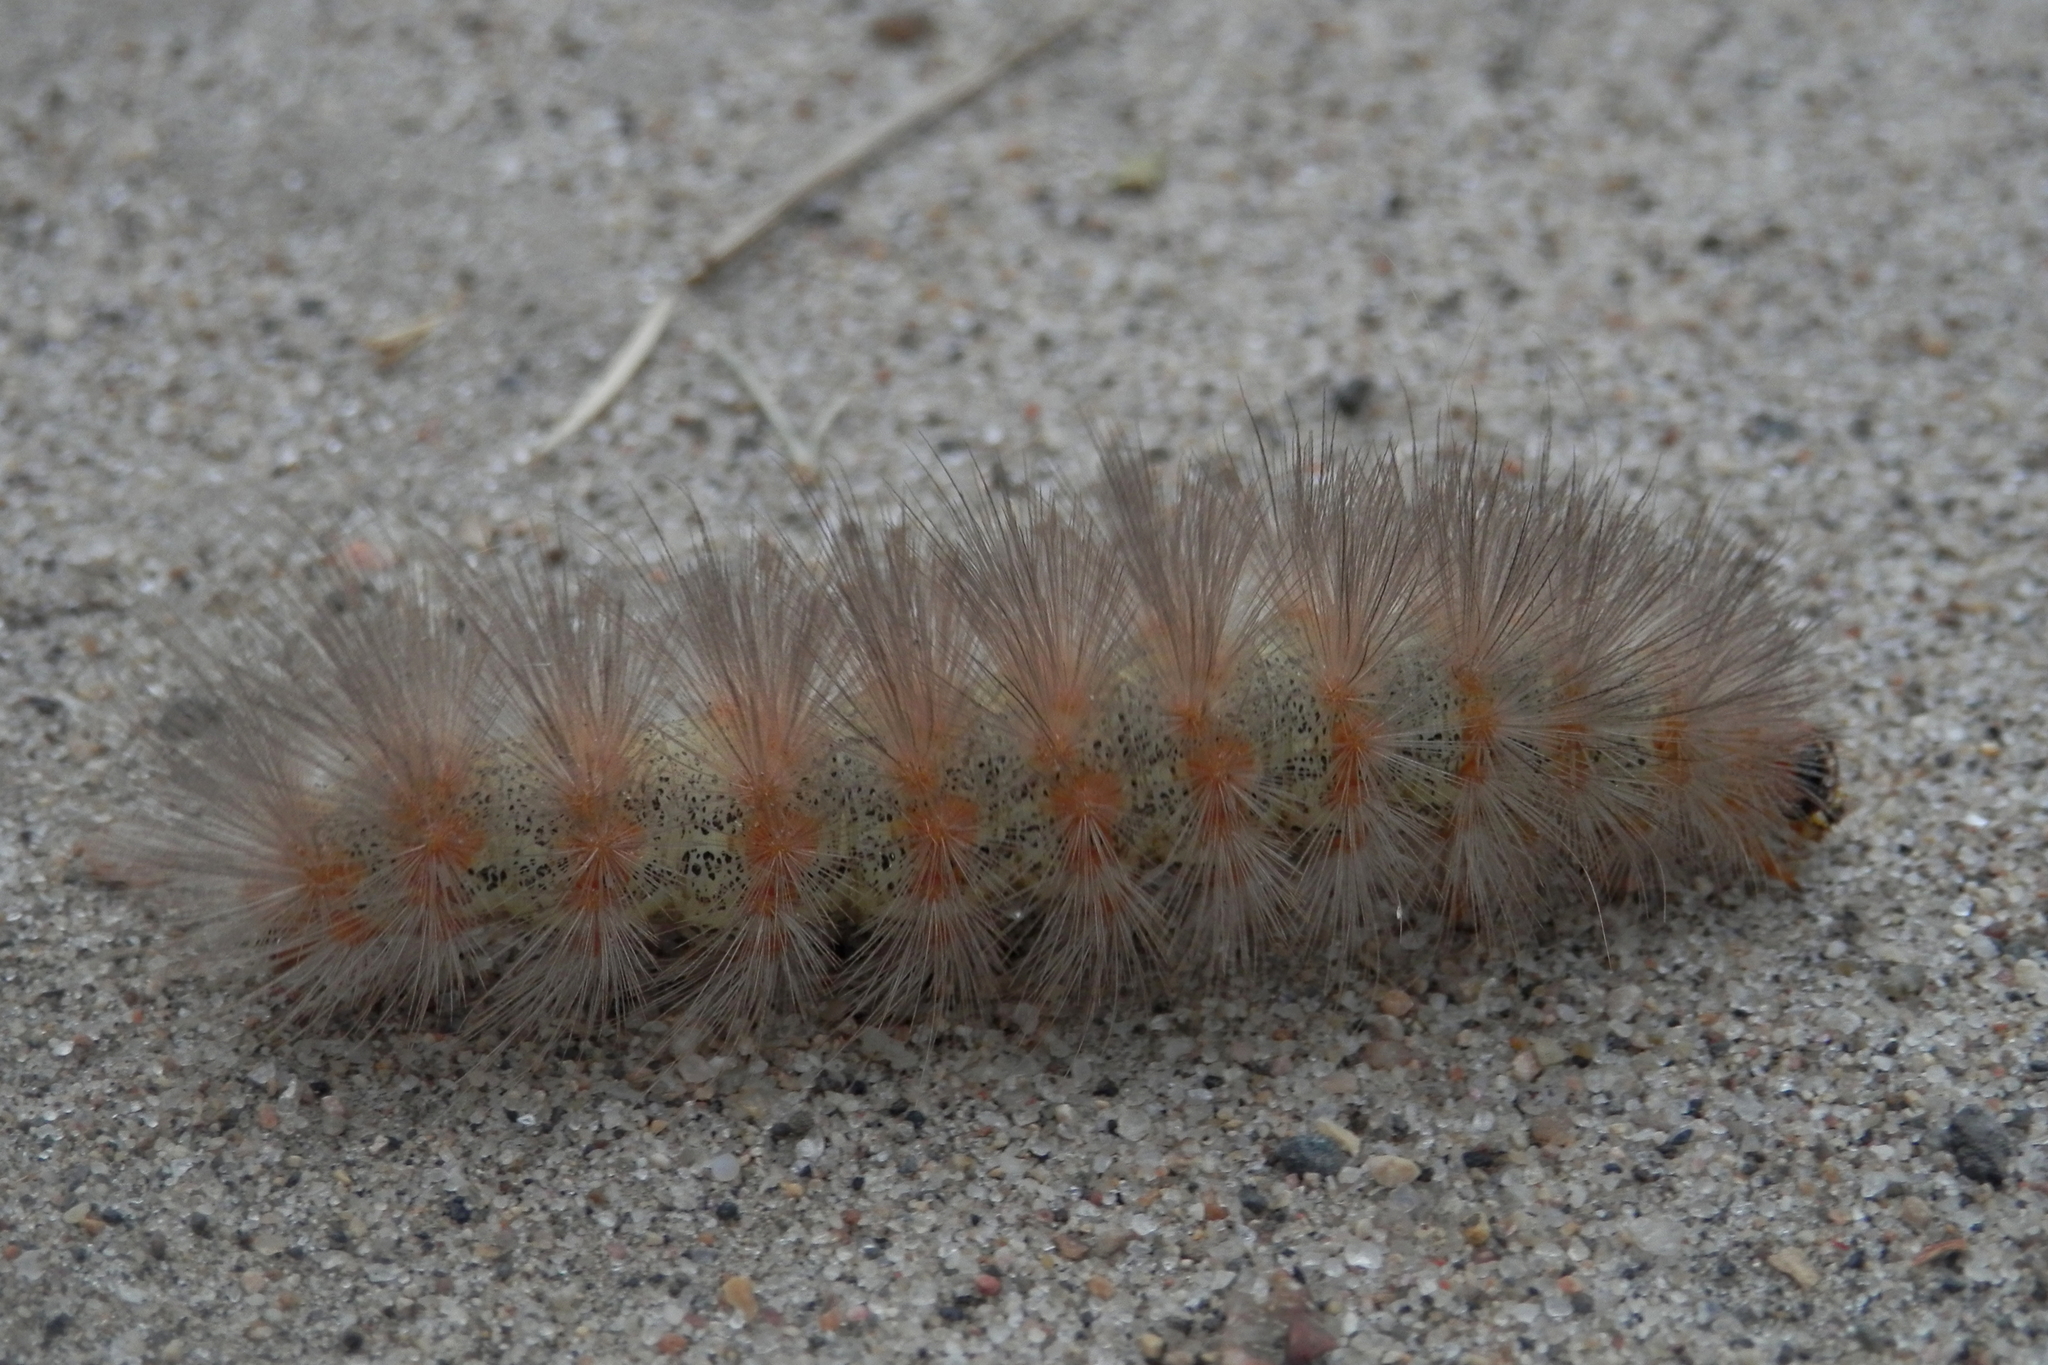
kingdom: Animalia
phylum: Arthropoda
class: Insecta
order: Lepidoptera
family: Erebidae
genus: Estigmene
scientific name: Estigmene acrea
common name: Salt marsh moth
